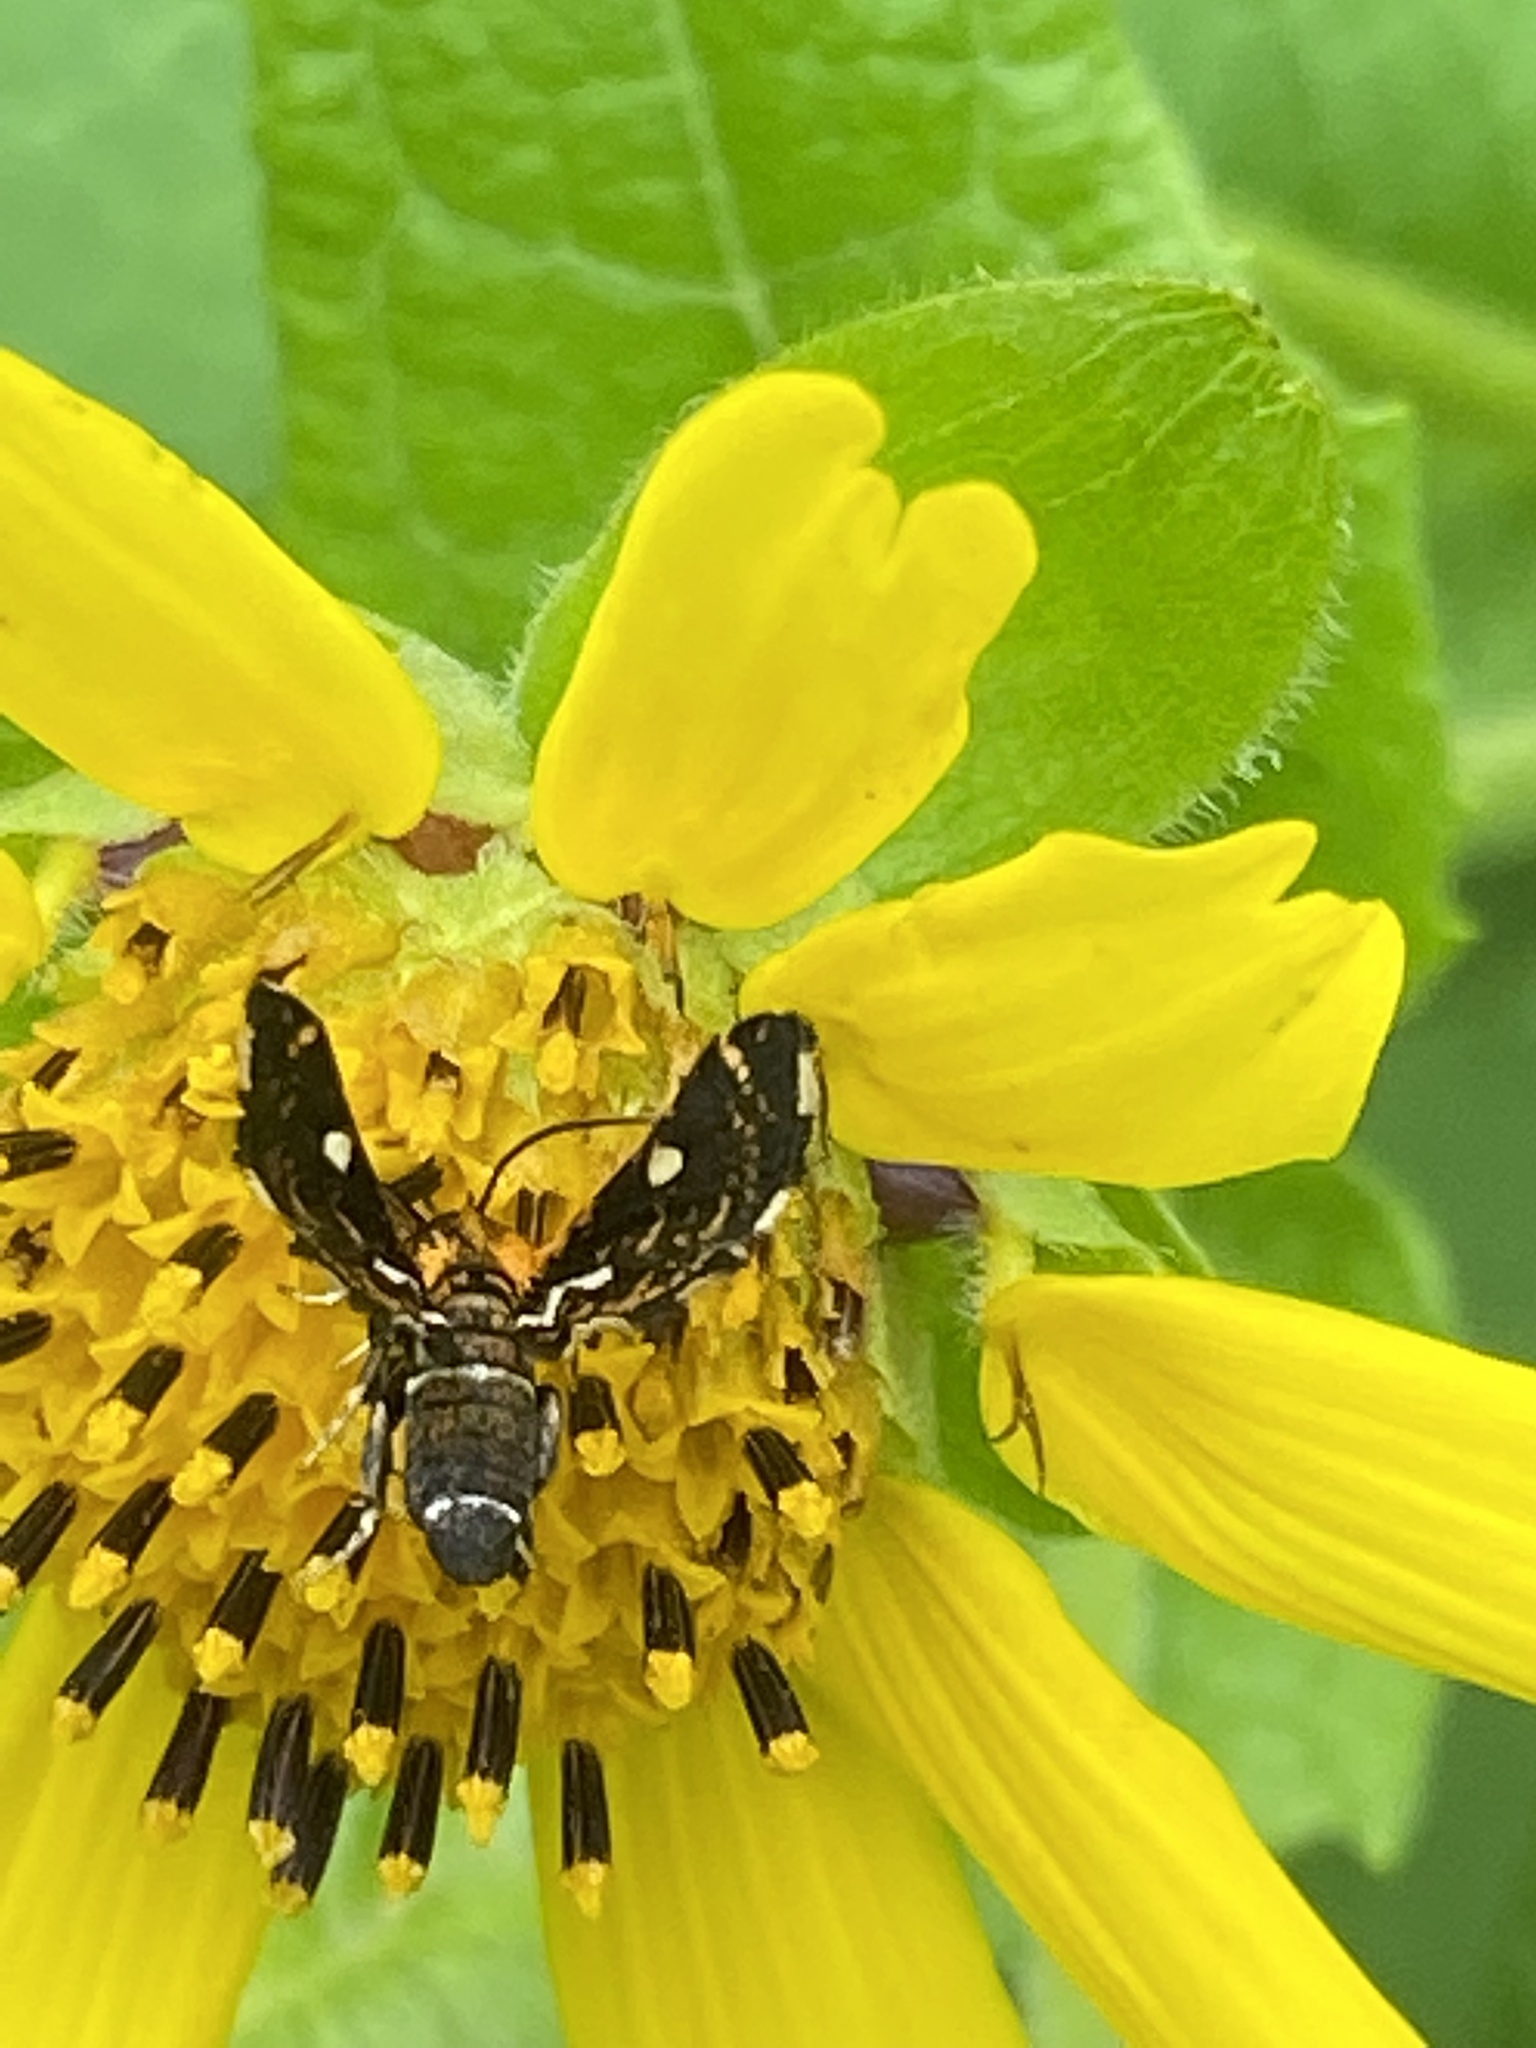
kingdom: Animalia
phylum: Arthropoda
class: Insecta
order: Lepidoptera
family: Thyrididae
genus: Thyris
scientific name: Thyris maculata
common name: Spotted thyris moth
